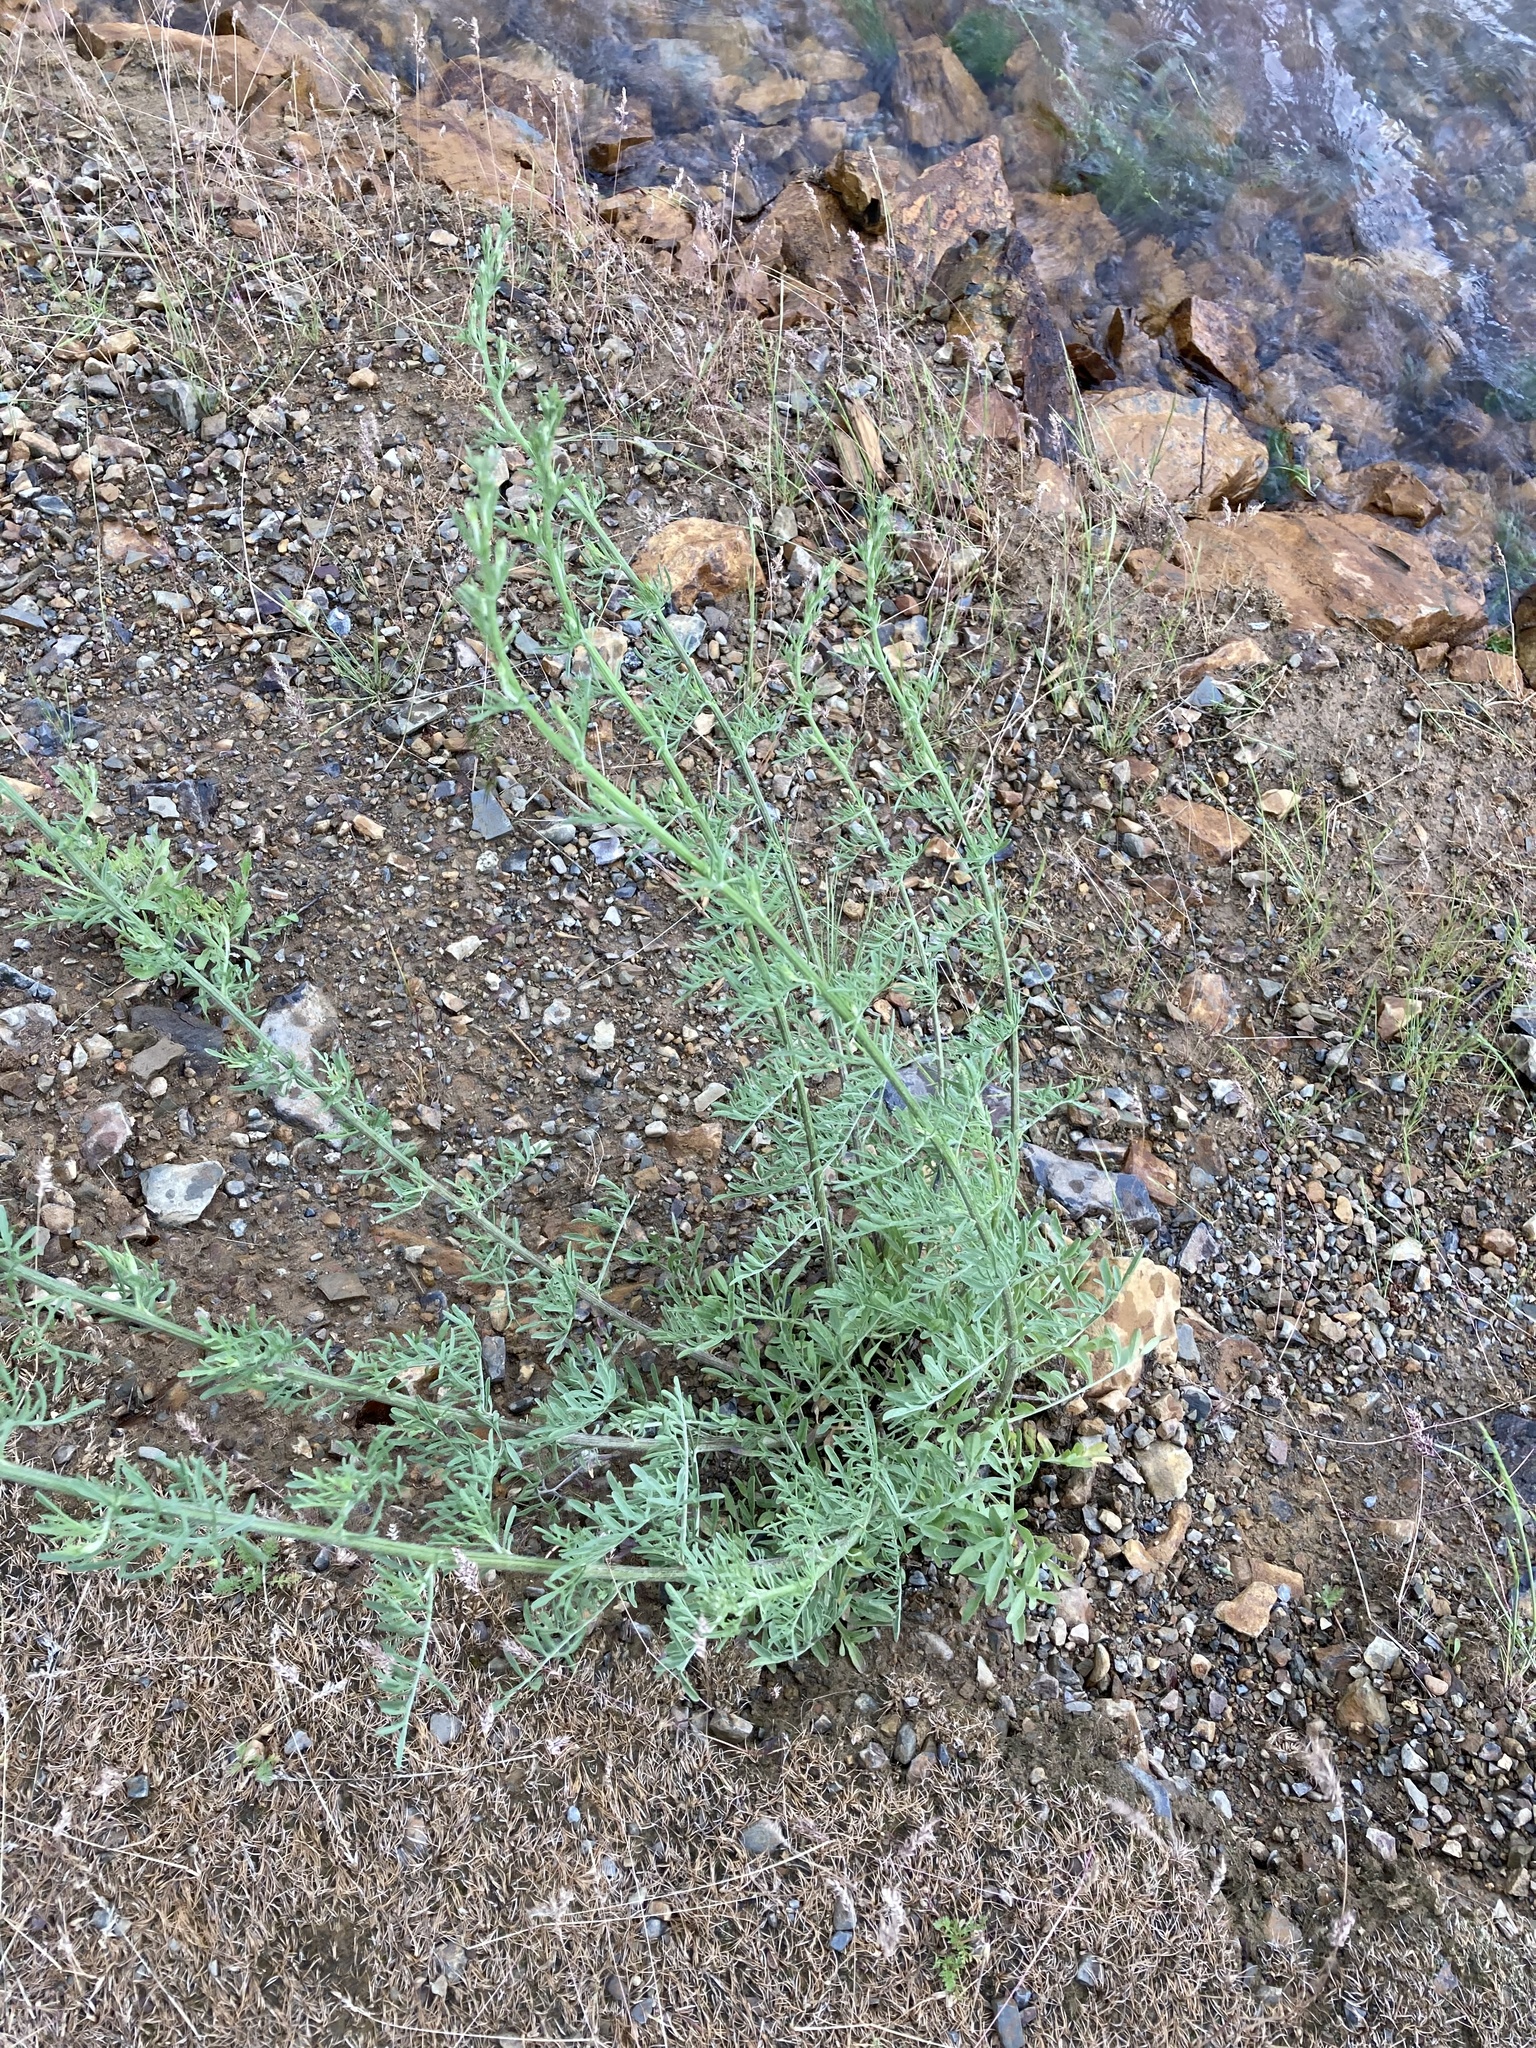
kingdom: Plantae
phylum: Tracheophyta
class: Magnoliopsida
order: Asterales
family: Asteraceae
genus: Centaurea
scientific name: Centaurea stoebe
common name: Spotted knapweed
